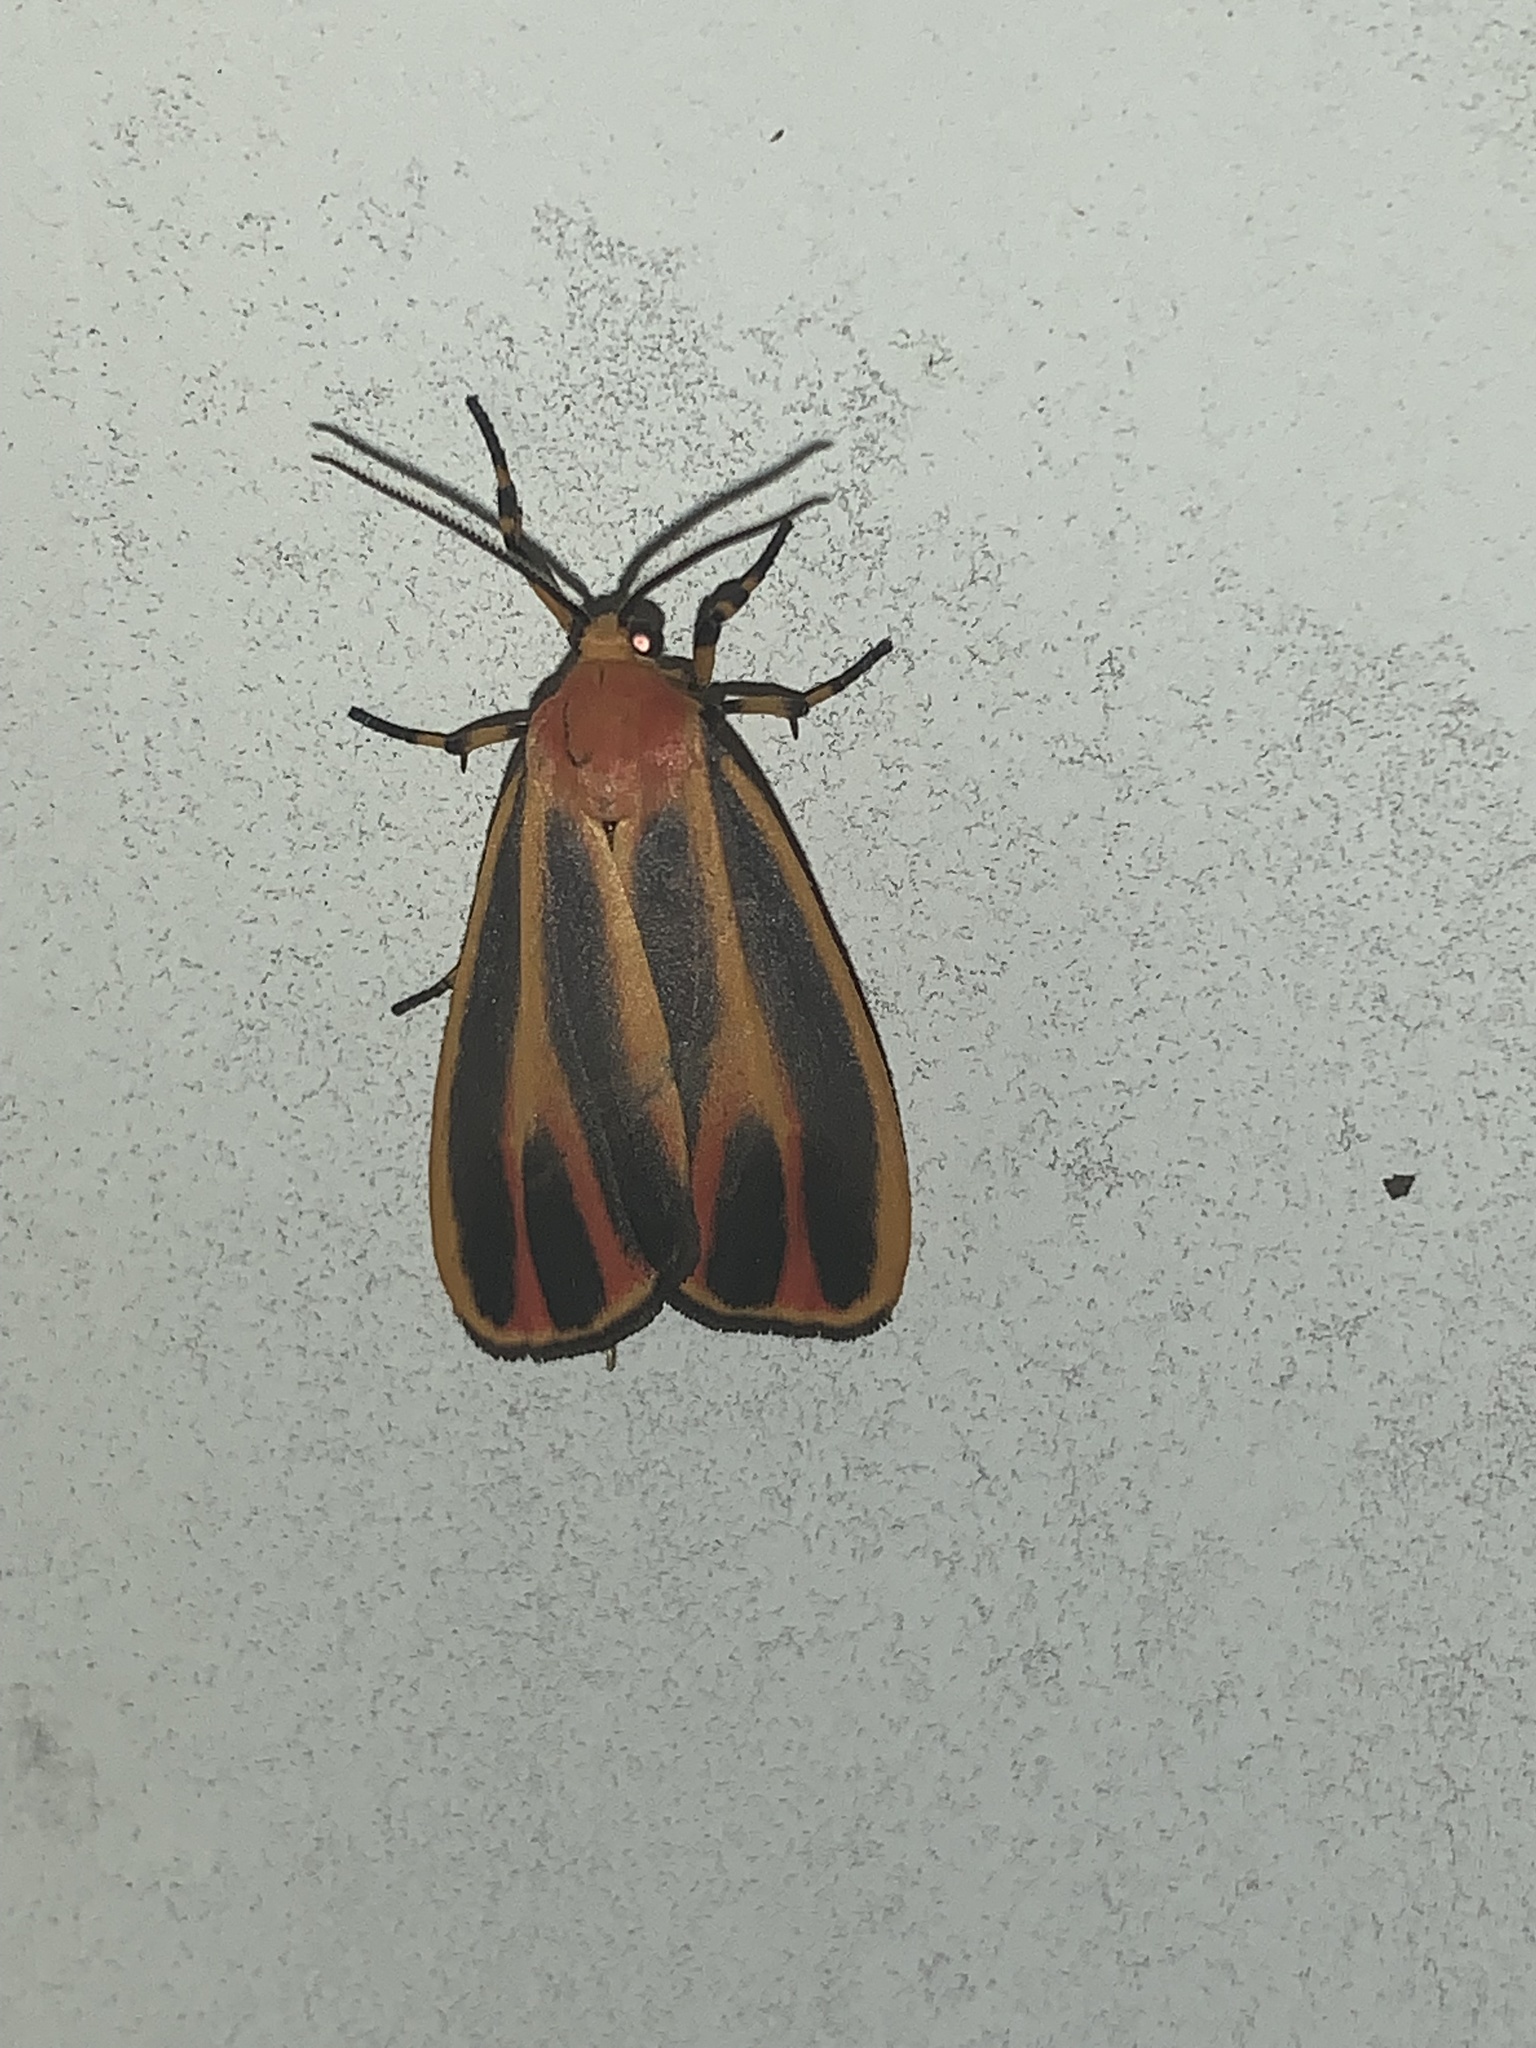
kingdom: Animalia
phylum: Arthropoda
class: Insecta
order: Lepidoptera
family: Erebidae
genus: Hypoprepia
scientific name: Hypoprepia fucosa
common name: Painted lichen moth
